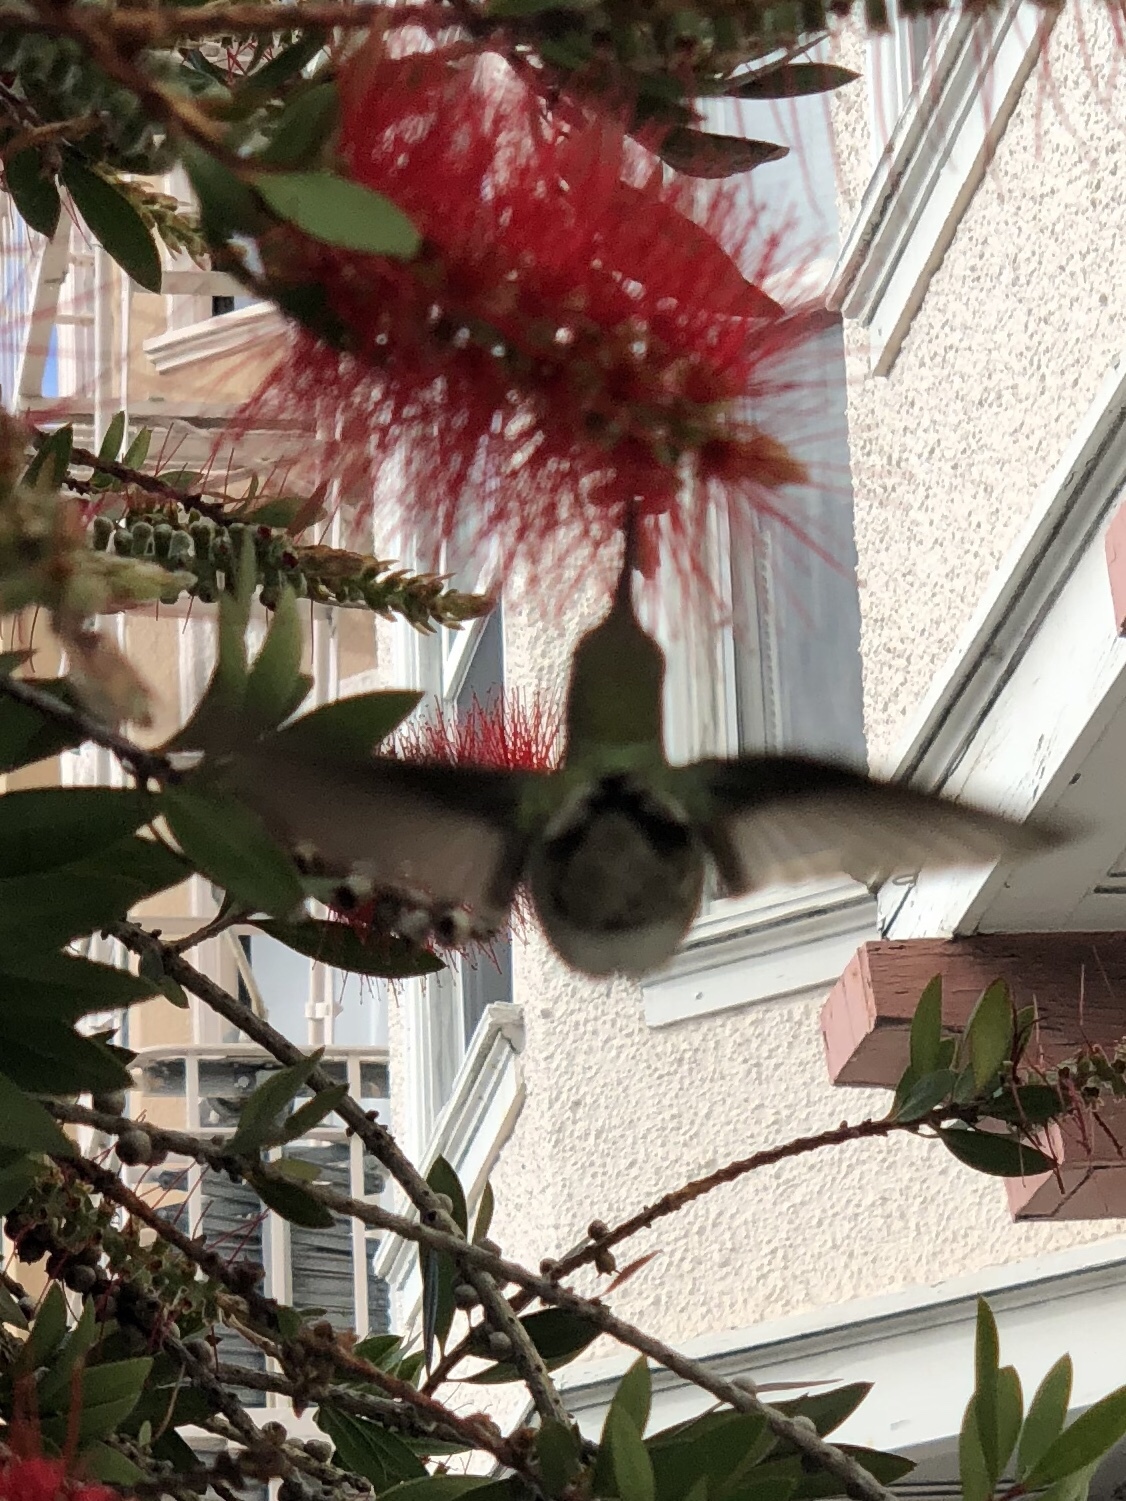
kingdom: Animalia
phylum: Chordata
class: Aves
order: Apodiformes
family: Trochilidae
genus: Calypte
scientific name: Calypte anna
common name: Anna's hummingbird
